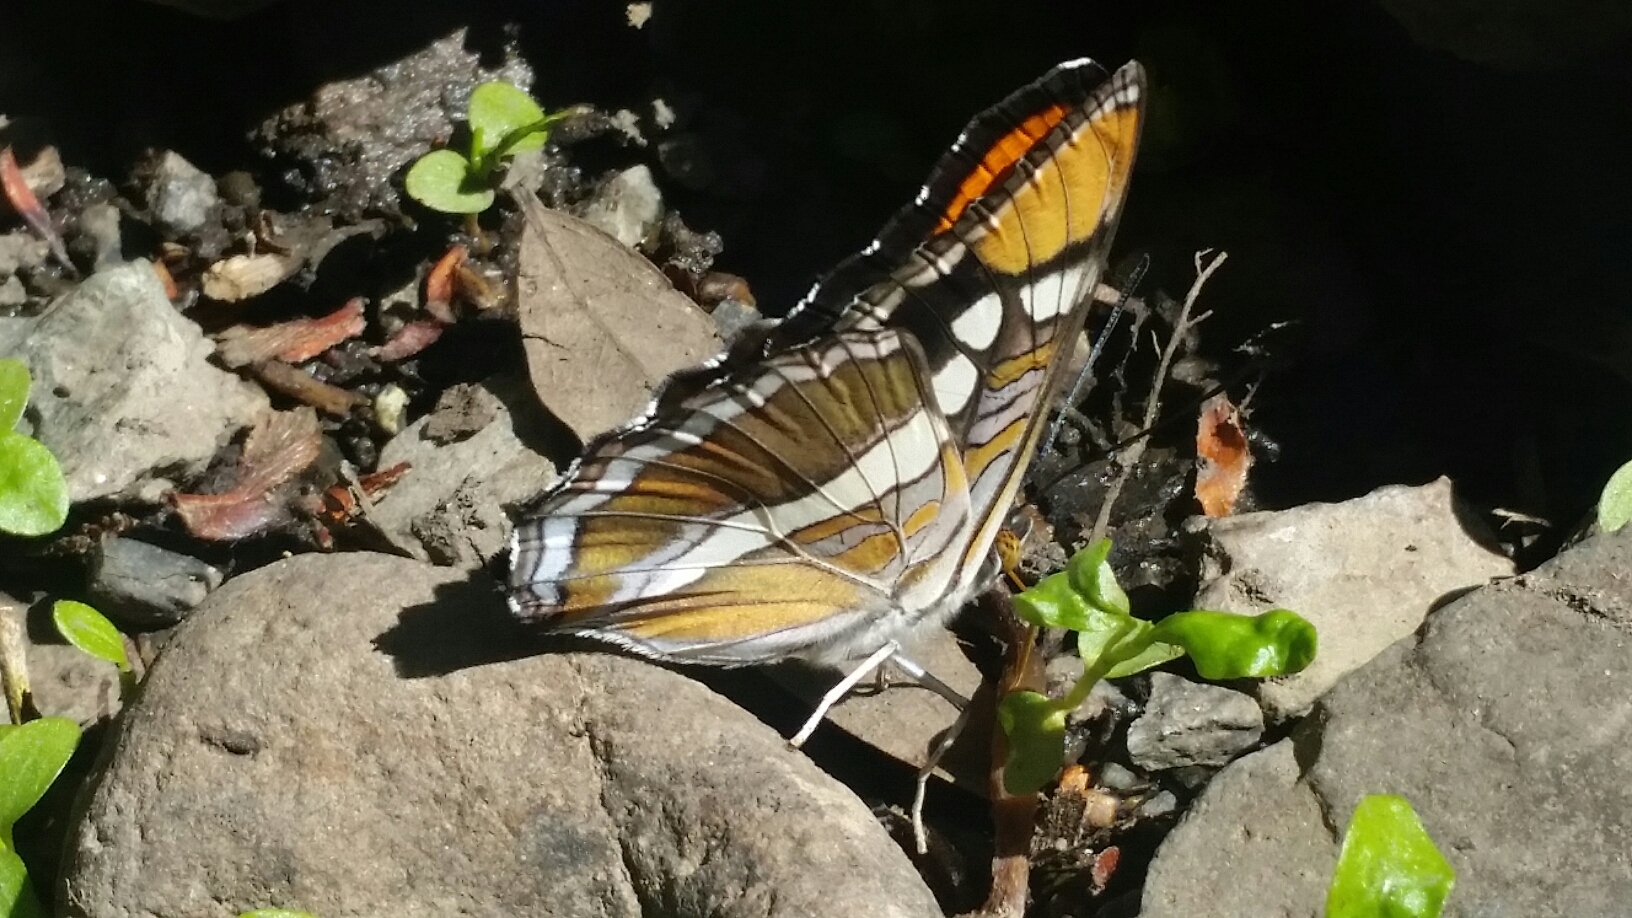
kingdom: Animalia
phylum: Arthropoda
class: Insecta
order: Lepidoptera
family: Nymphalidae
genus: Limenitis
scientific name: Limenitis bredowii
